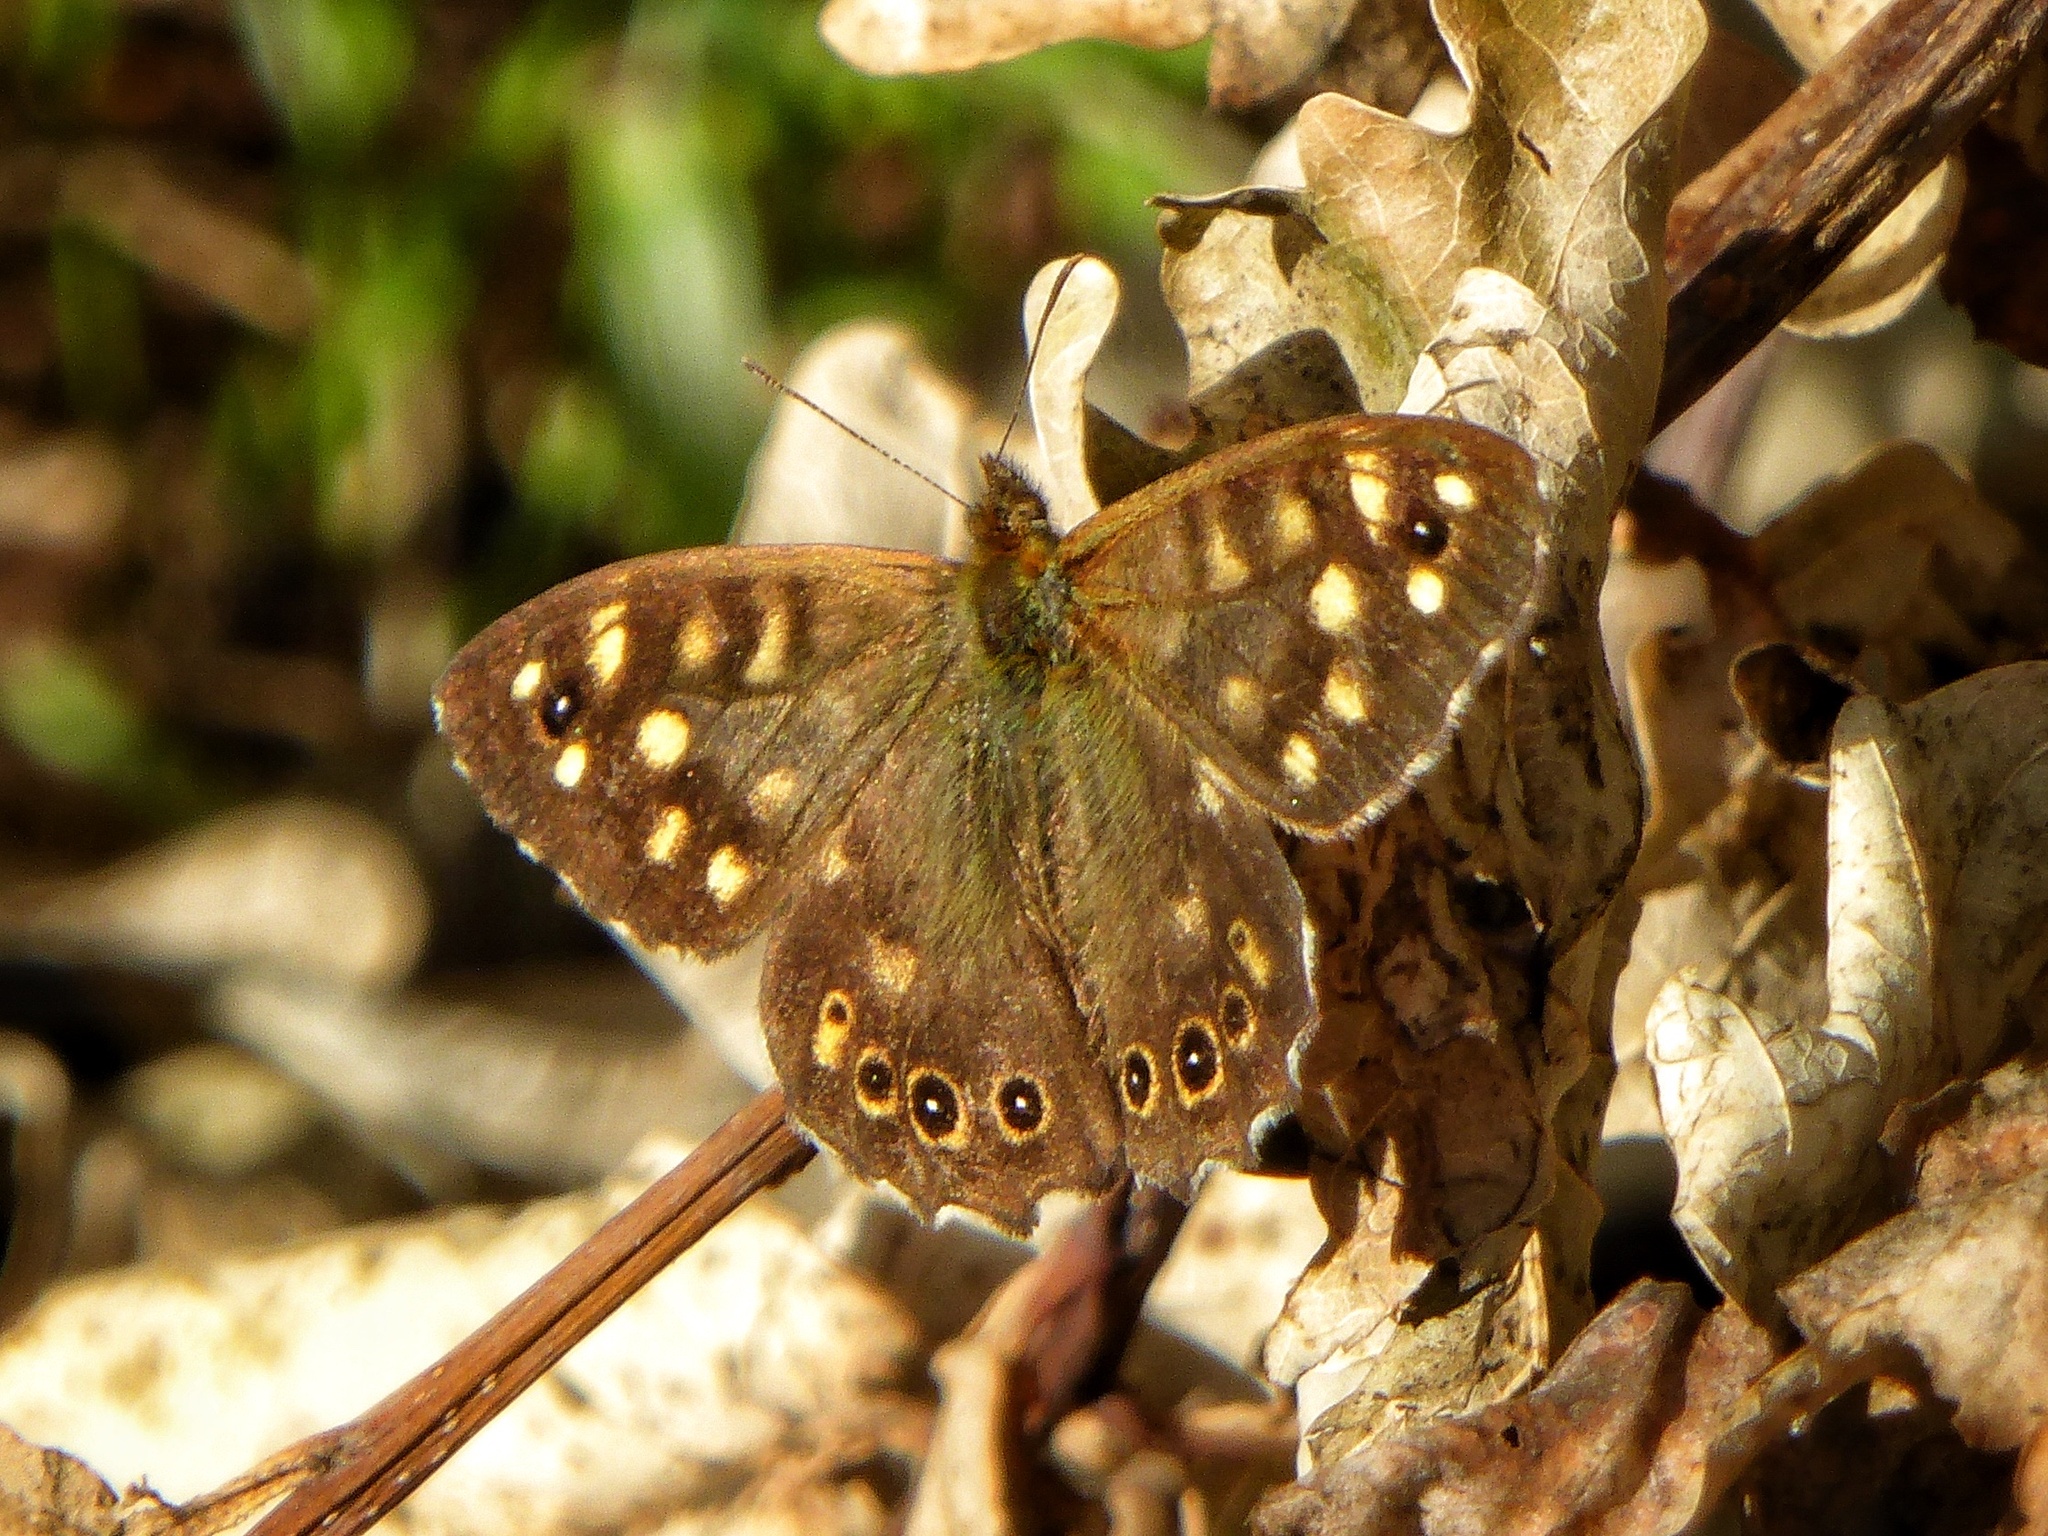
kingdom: Animalia
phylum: Arthropoda
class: Insecta
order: Lepidoptera
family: Nymphalidae
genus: Pararge
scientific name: Pararge aegeria
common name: Speckled wood
